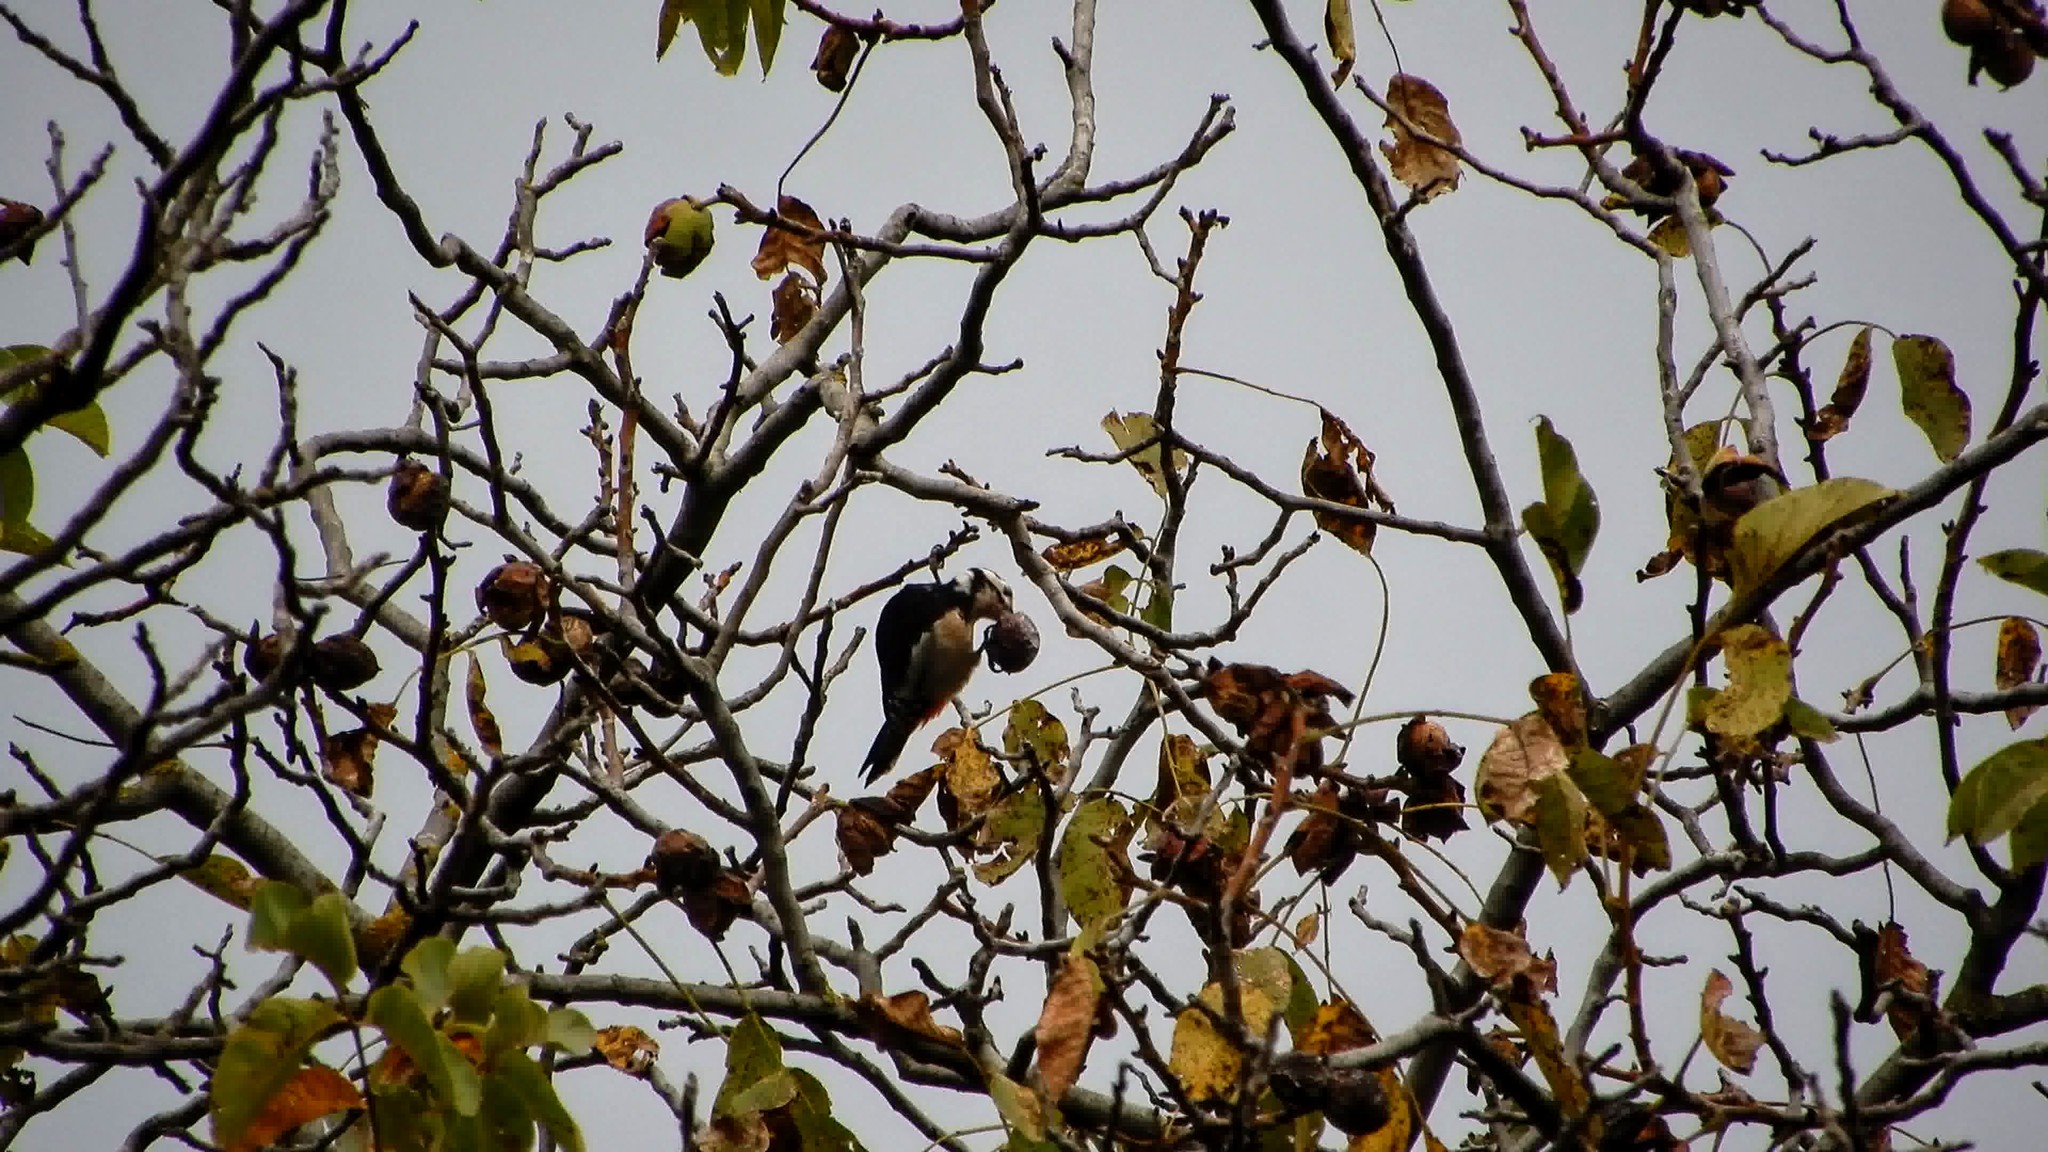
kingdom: Animalia
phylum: Chordata
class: Aves
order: Piciformes
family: Picidae
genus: Dendrocopos
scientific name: Dendrocopos major
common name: Great spotted woodpecker
